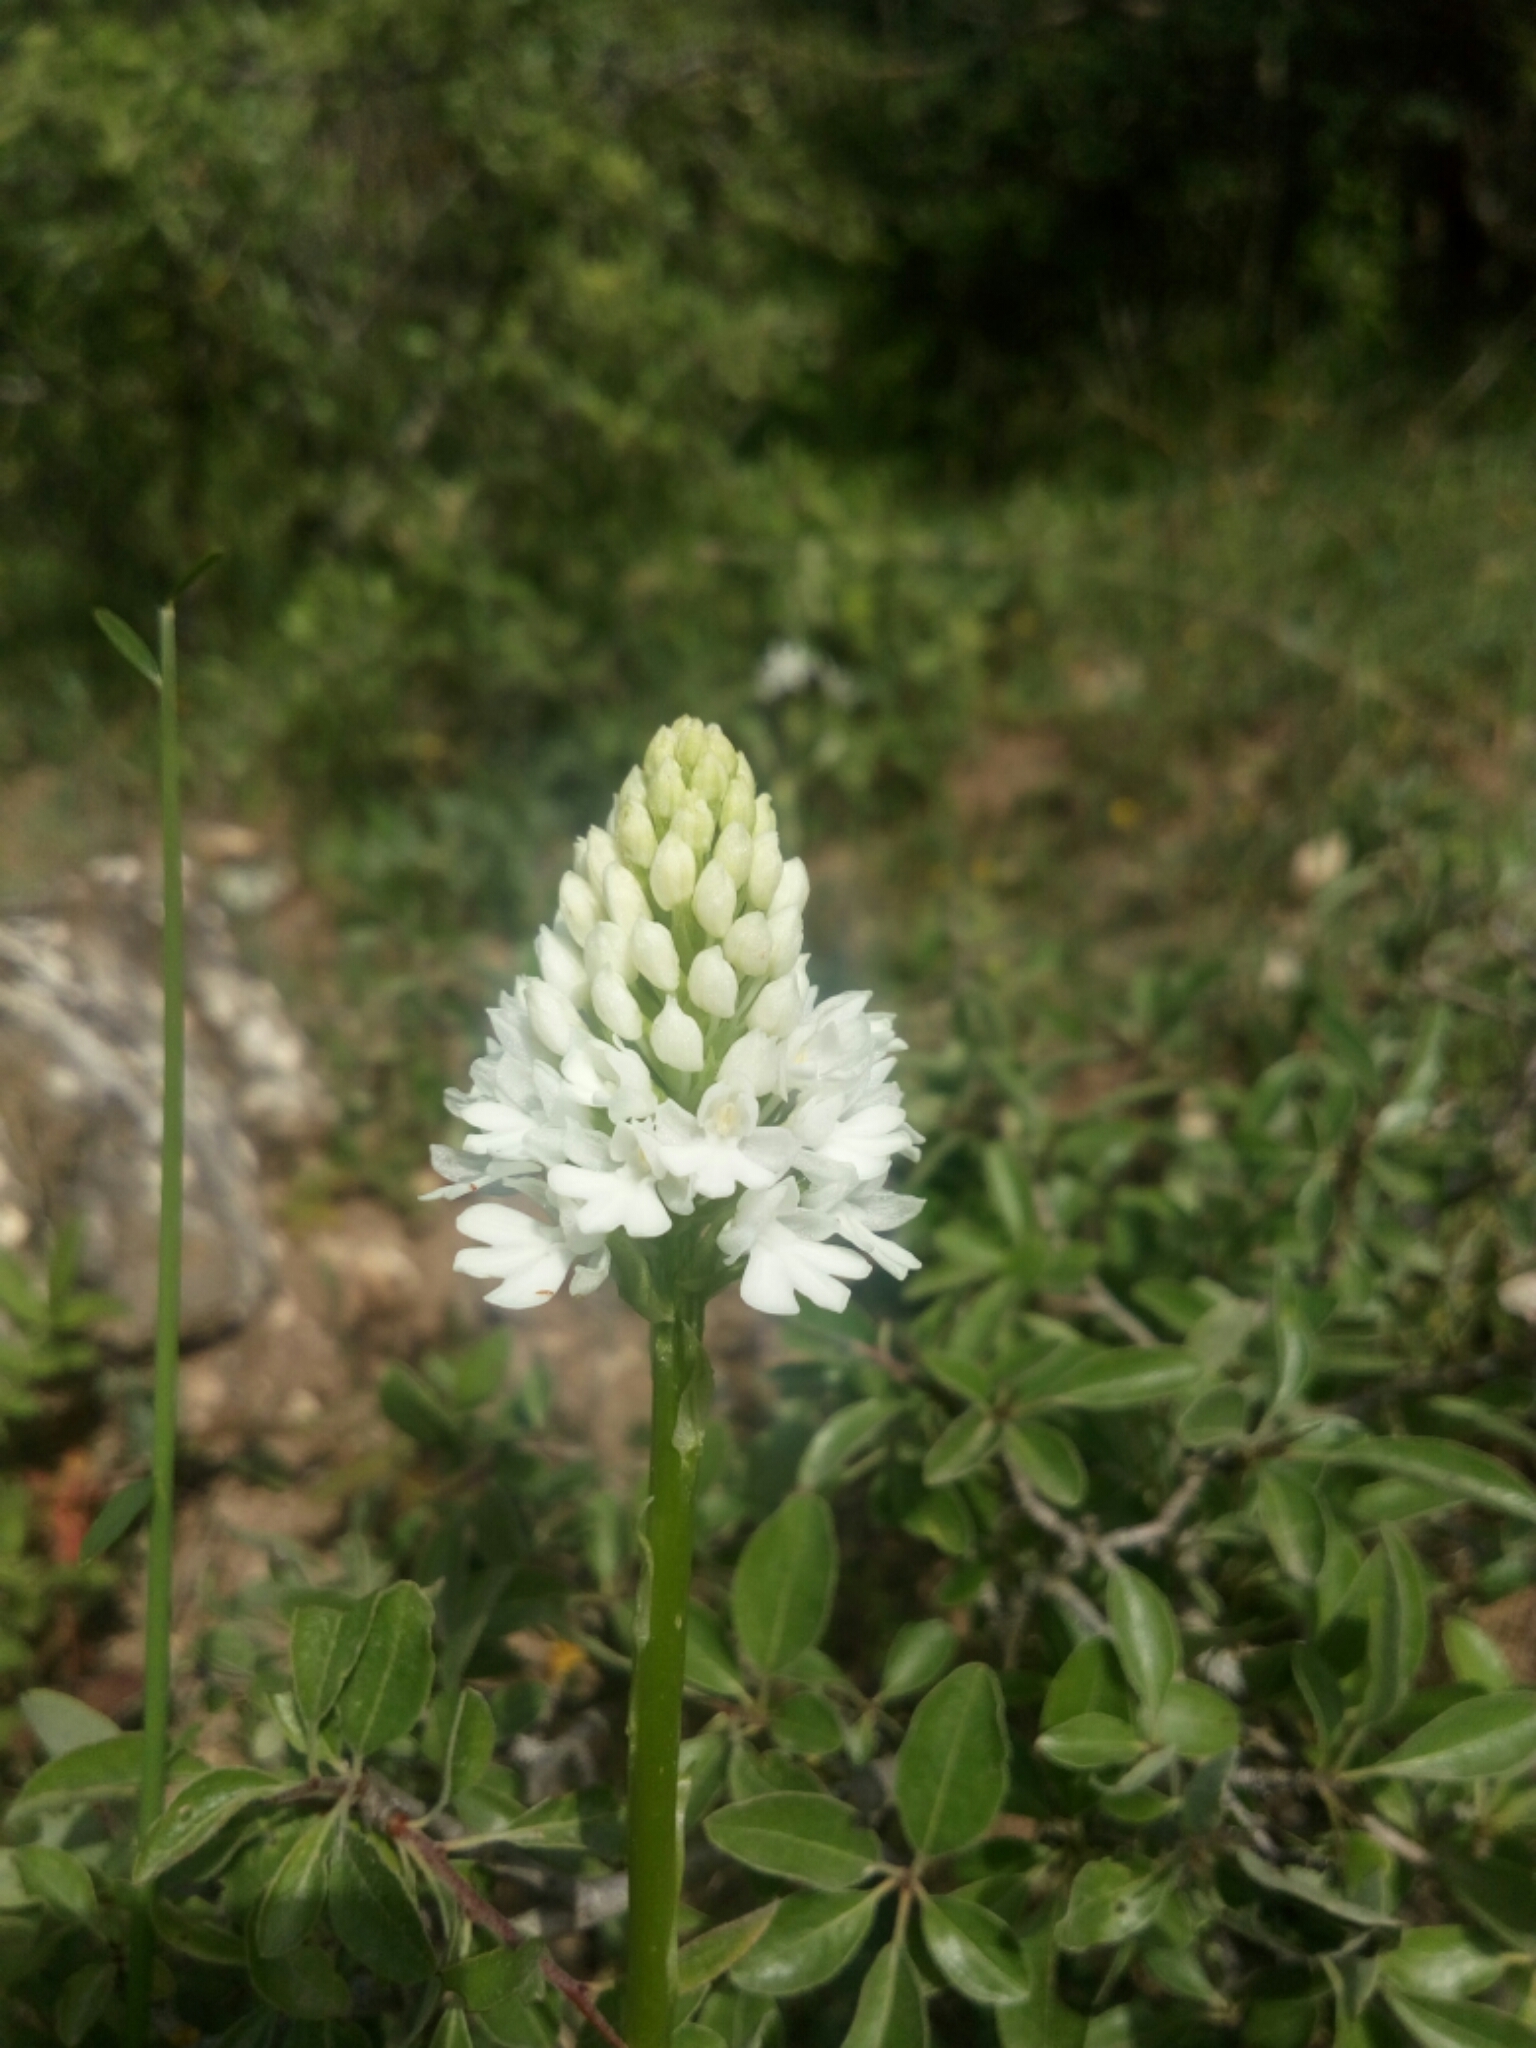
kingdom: Plantae
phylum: Tracheophyta
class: Liliopsida
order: Asparagales
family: Orchidaceae
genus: Anacamptis
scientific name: Anacamptis pyramidalis
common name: Pyramidal orchid
